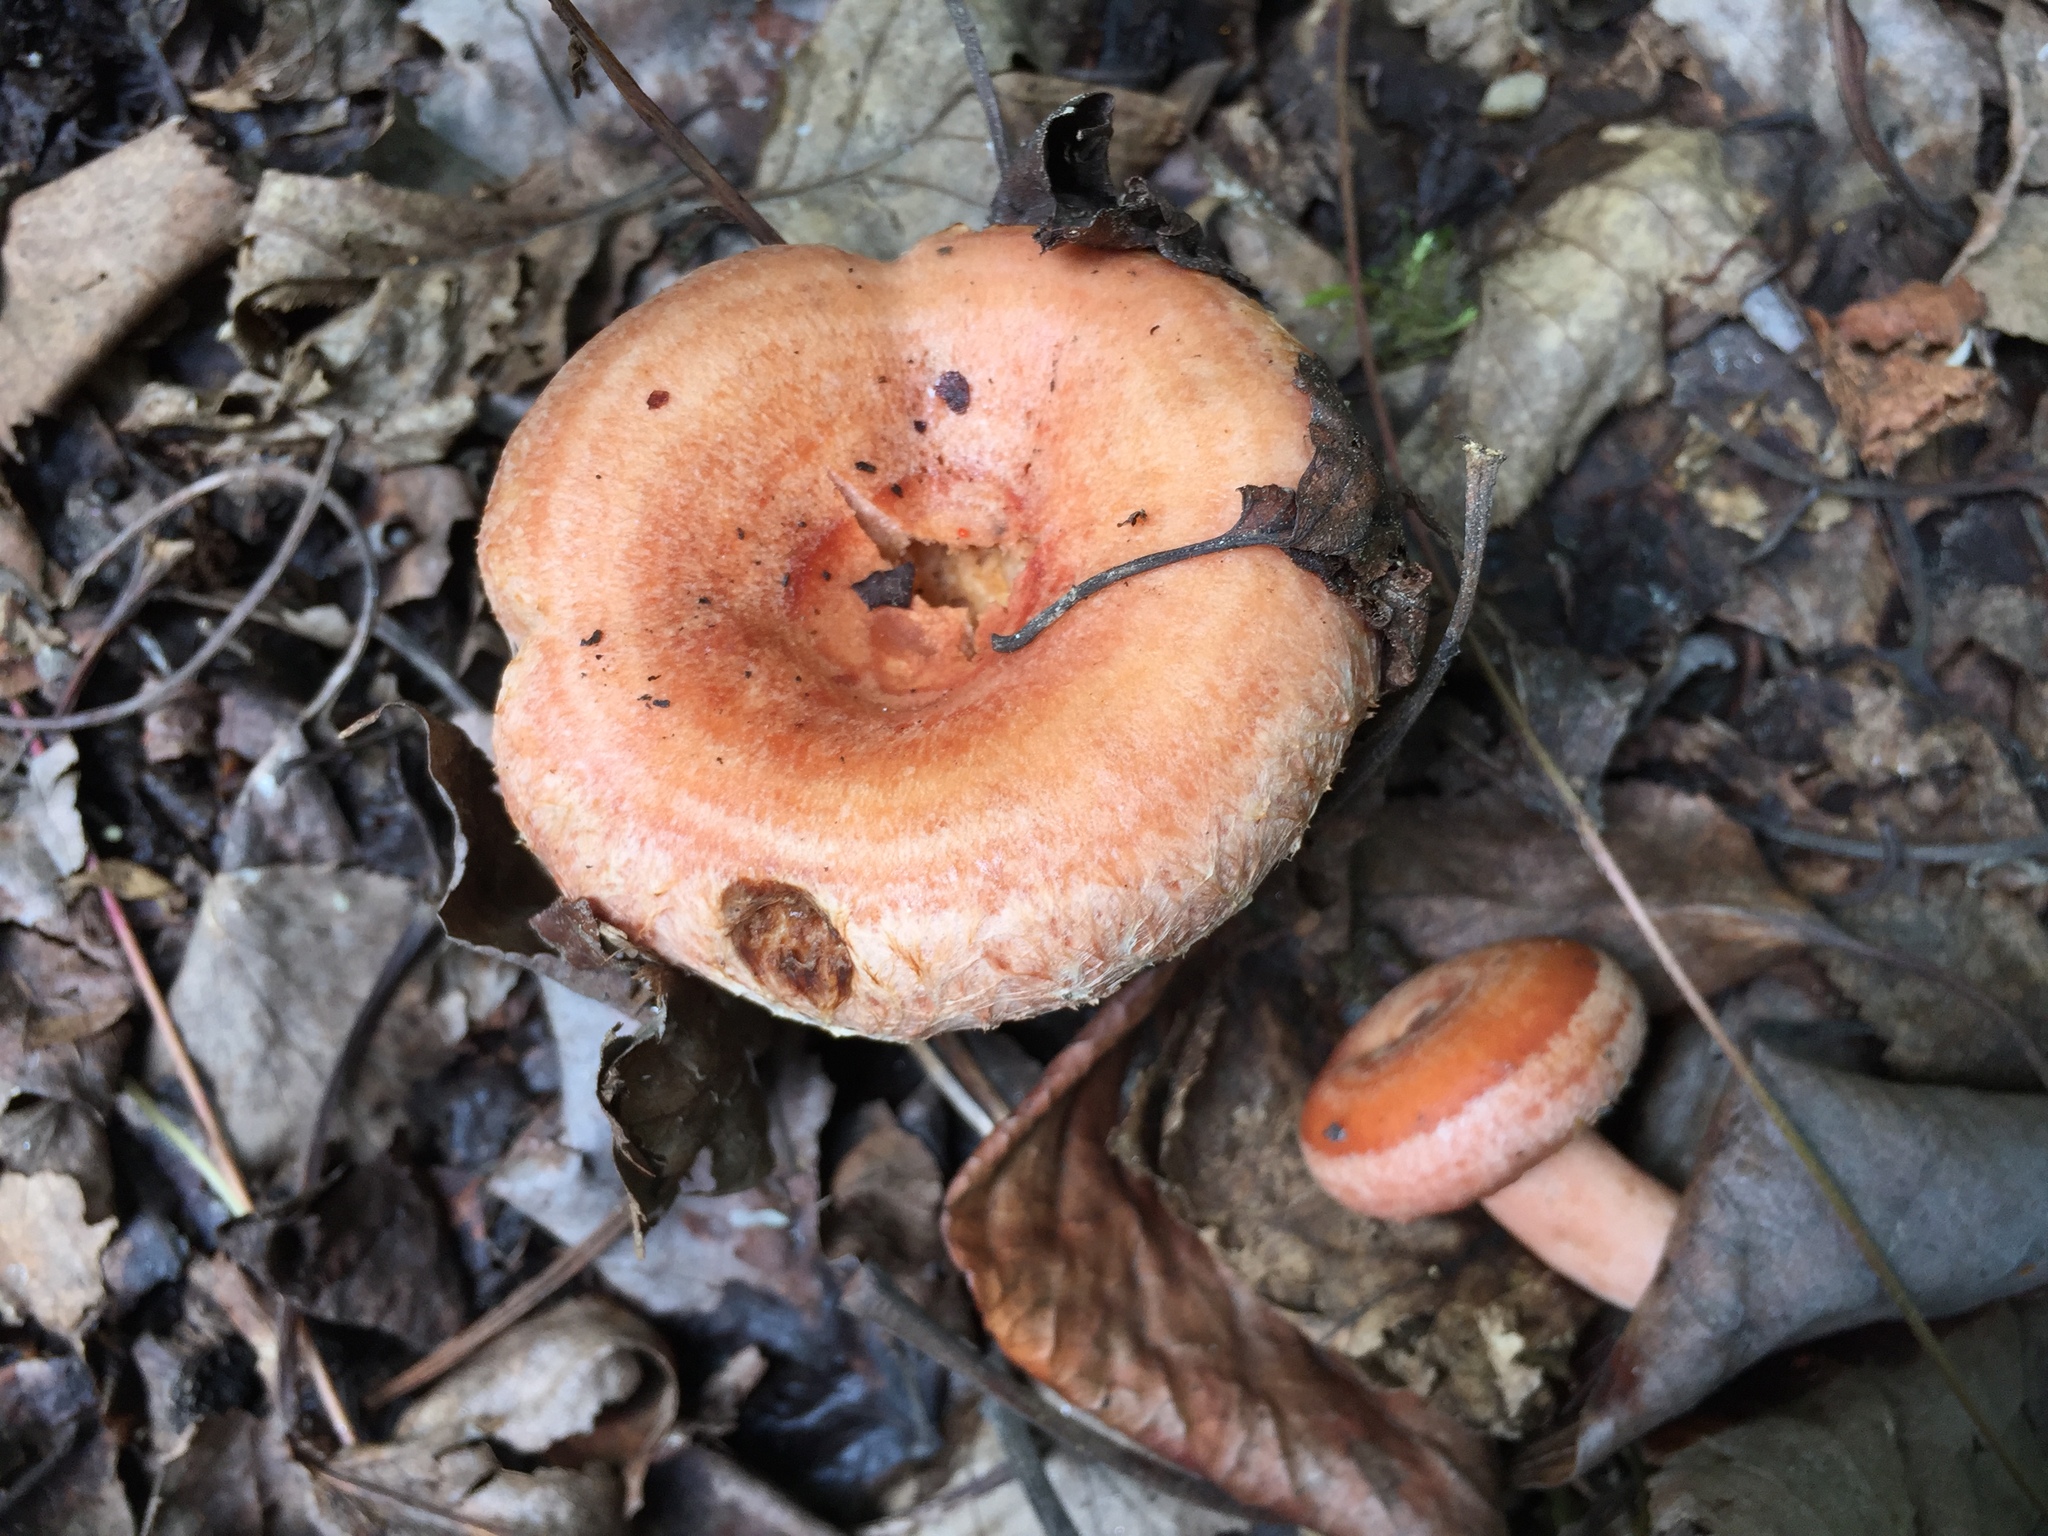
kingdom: Fungi
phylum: Basidiomycota
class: Agaricomycetes
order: Russulales
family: Russulaceae
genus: Lactarius
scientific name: Lactarius torminosus
